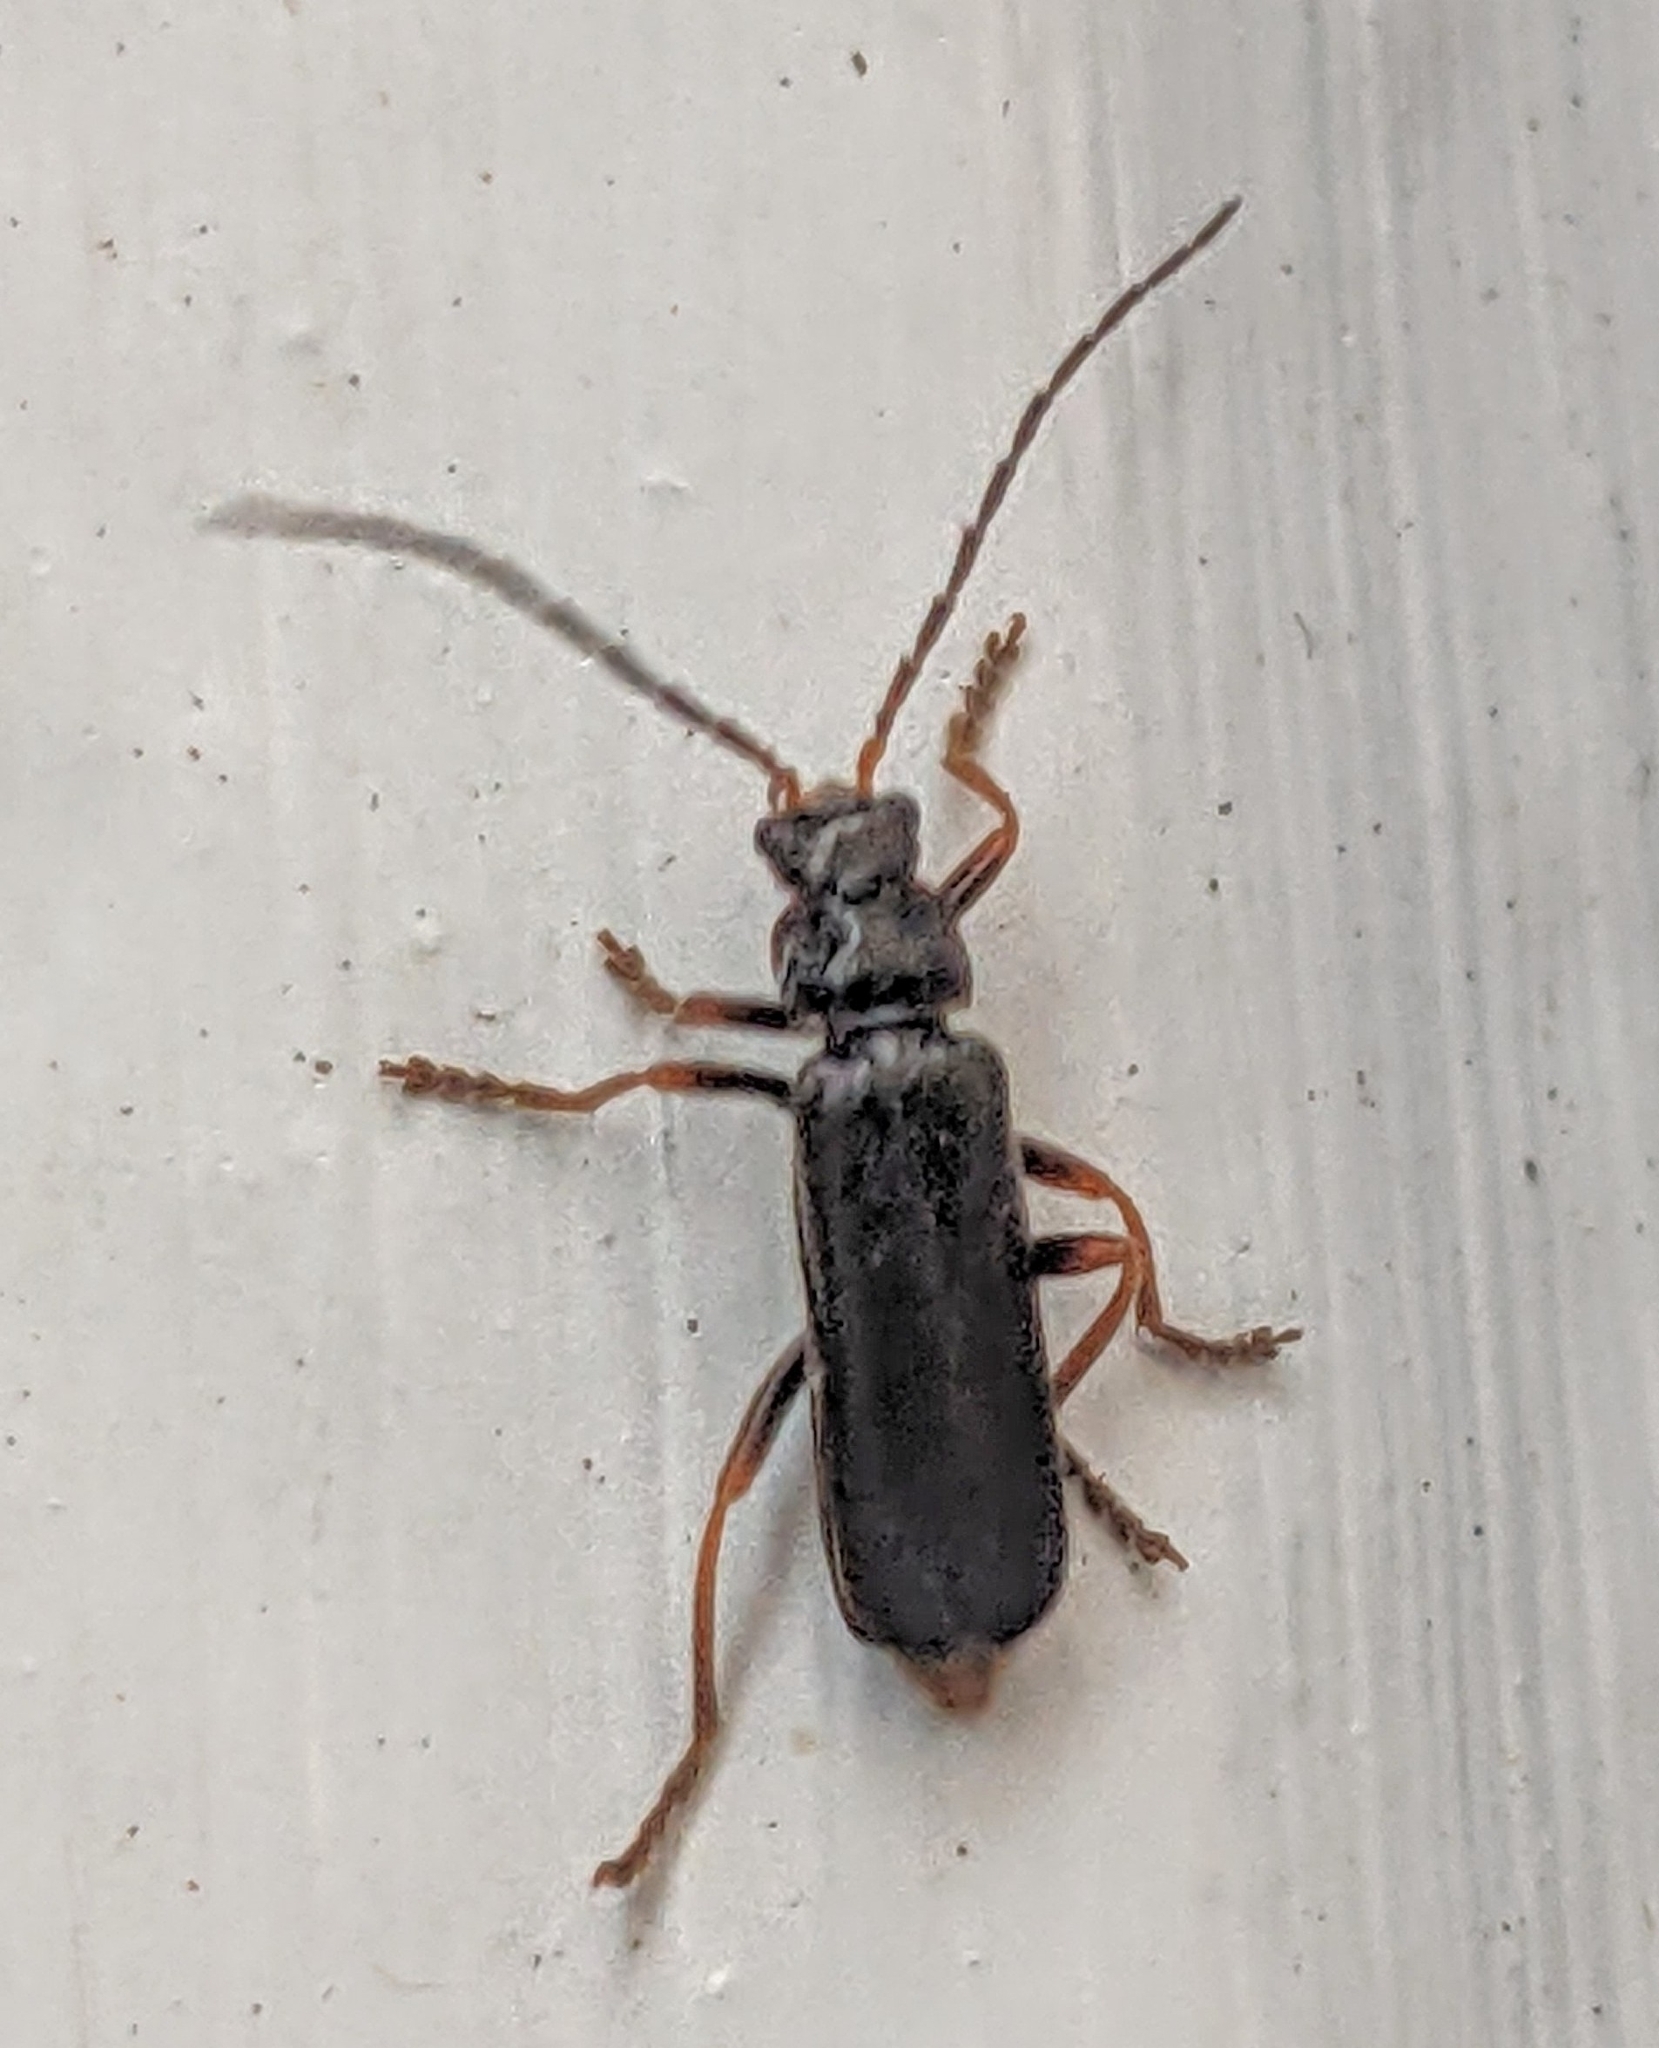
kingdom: Animalia
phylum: Arthropoda
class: Insecta
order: Coleoptera
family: Cantharidae
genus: Cantharis
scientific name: Cantharis flavilabris
